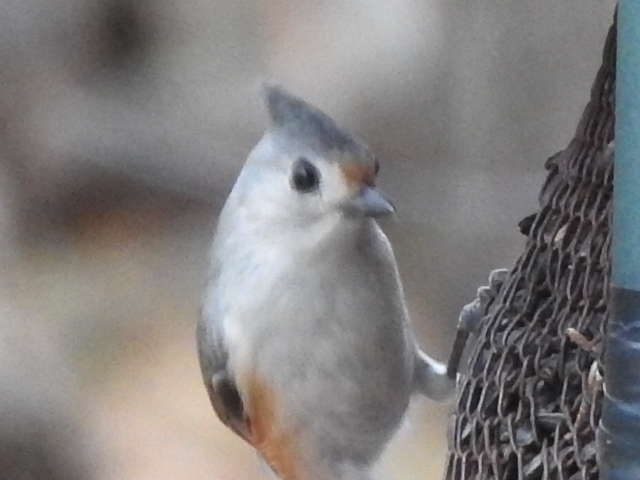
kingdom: Animalia
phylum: Chordata
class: Aves
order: Passeriformes
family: Paridae
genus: Baeolophus
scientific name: Baeolophus
